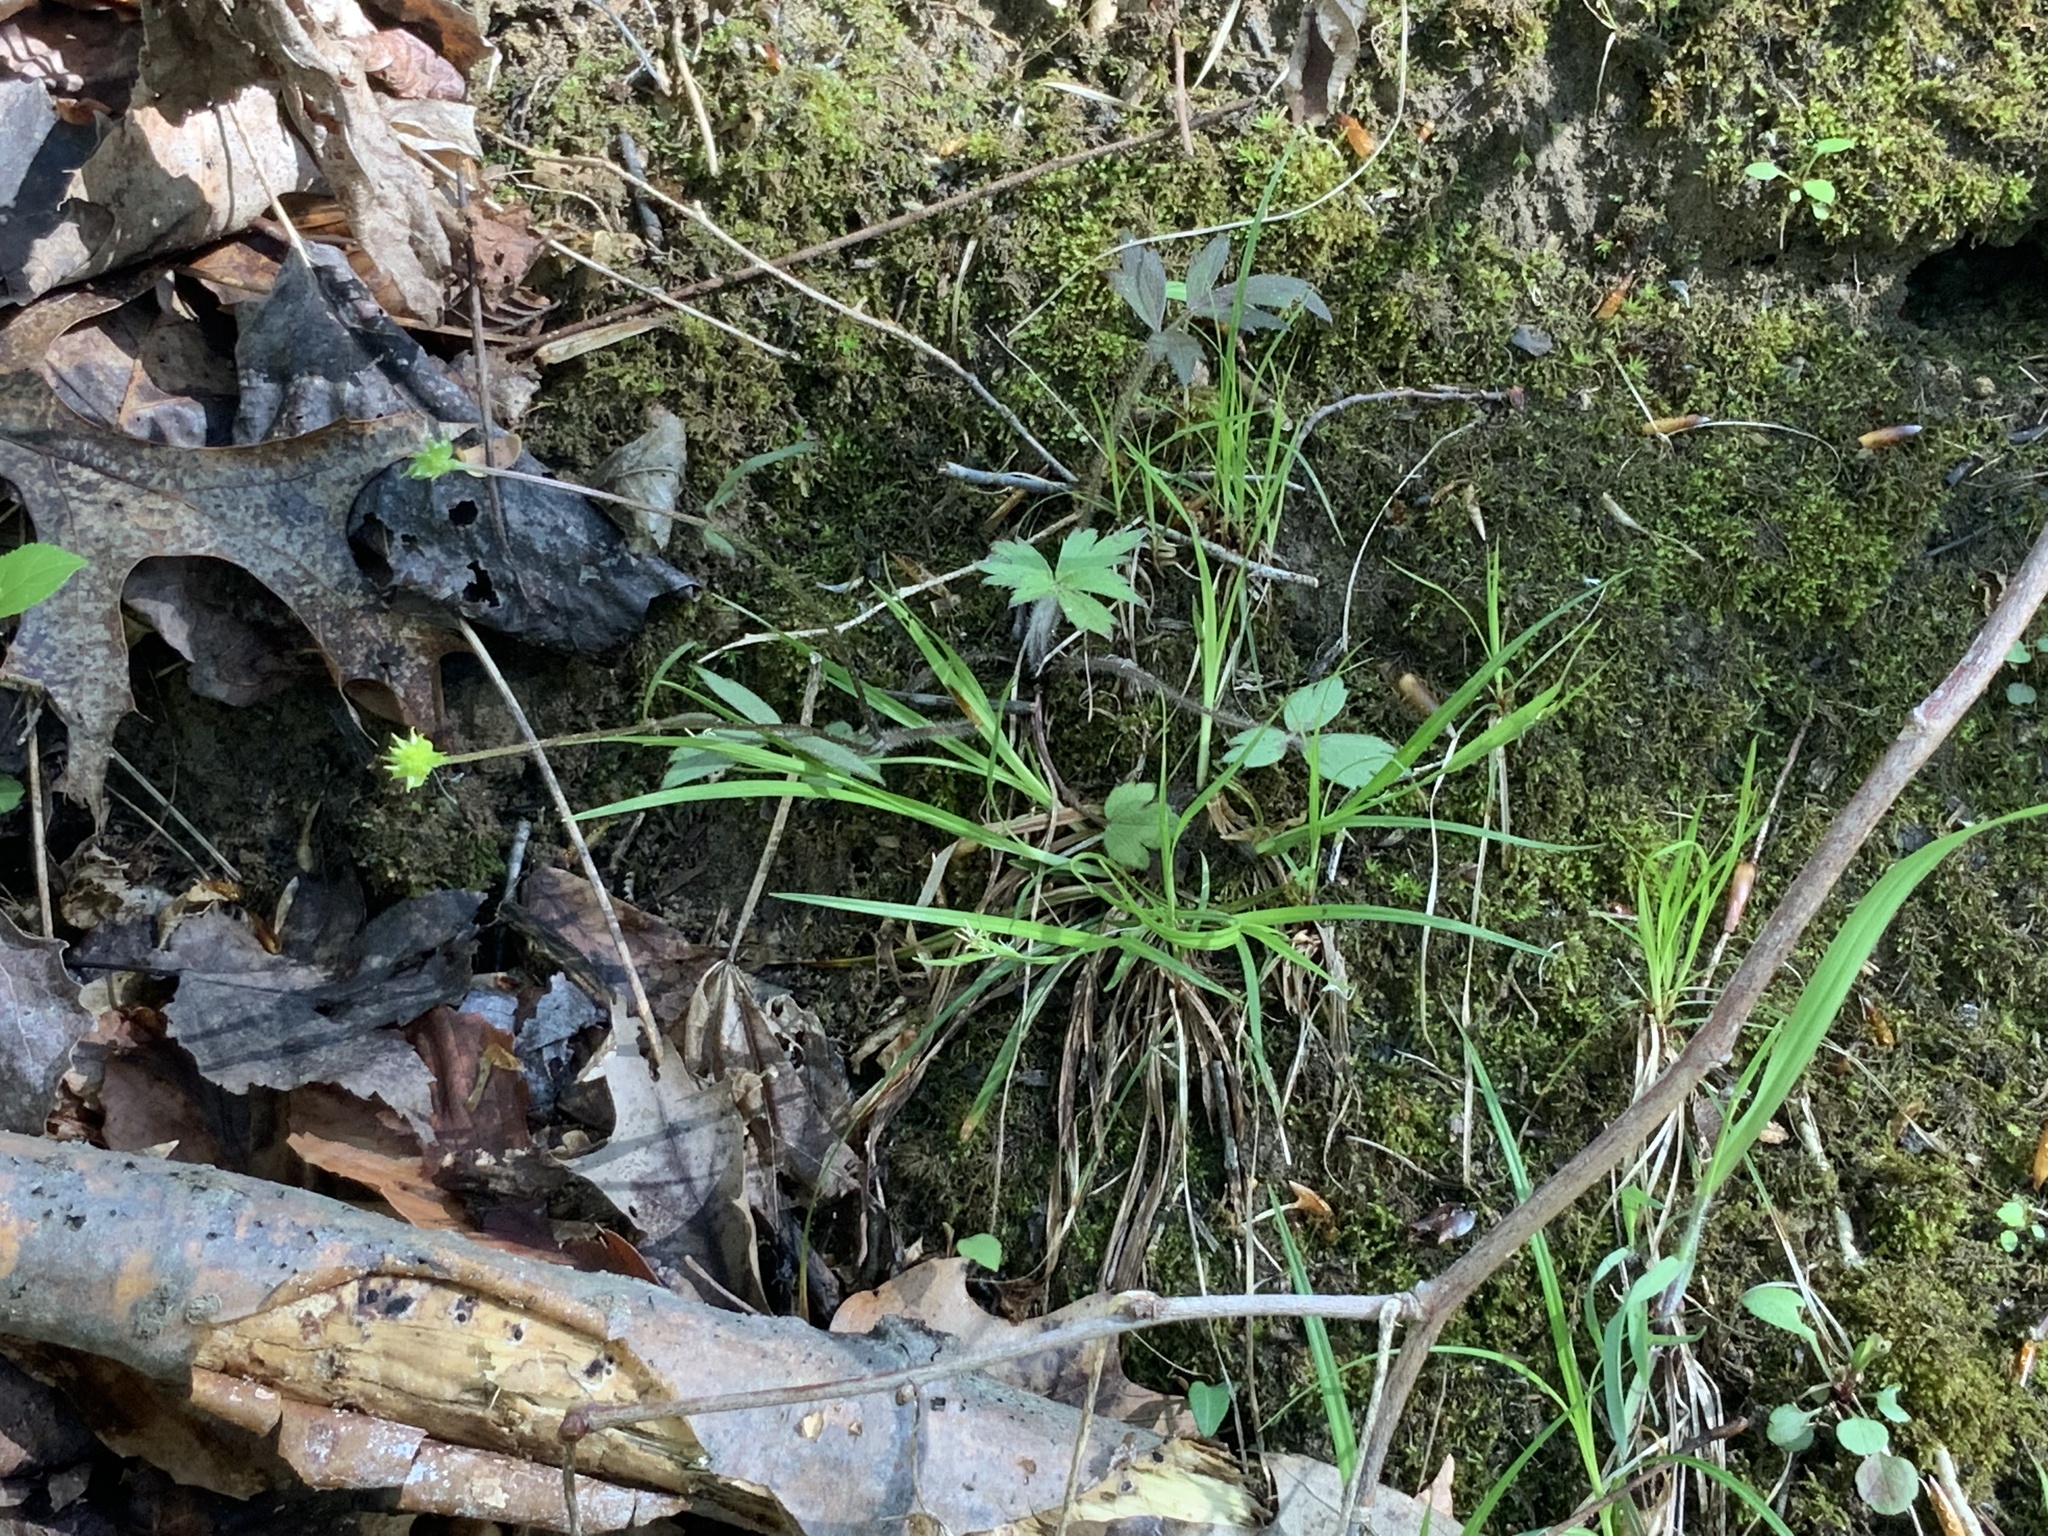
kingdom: Plantae
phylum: Tracheophyta
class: Magnoliopsida
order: Ranunculales
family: Ranunculaceae
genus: Ranunculus
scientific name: Ranunculus hispidus
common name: Bristly buttercup
